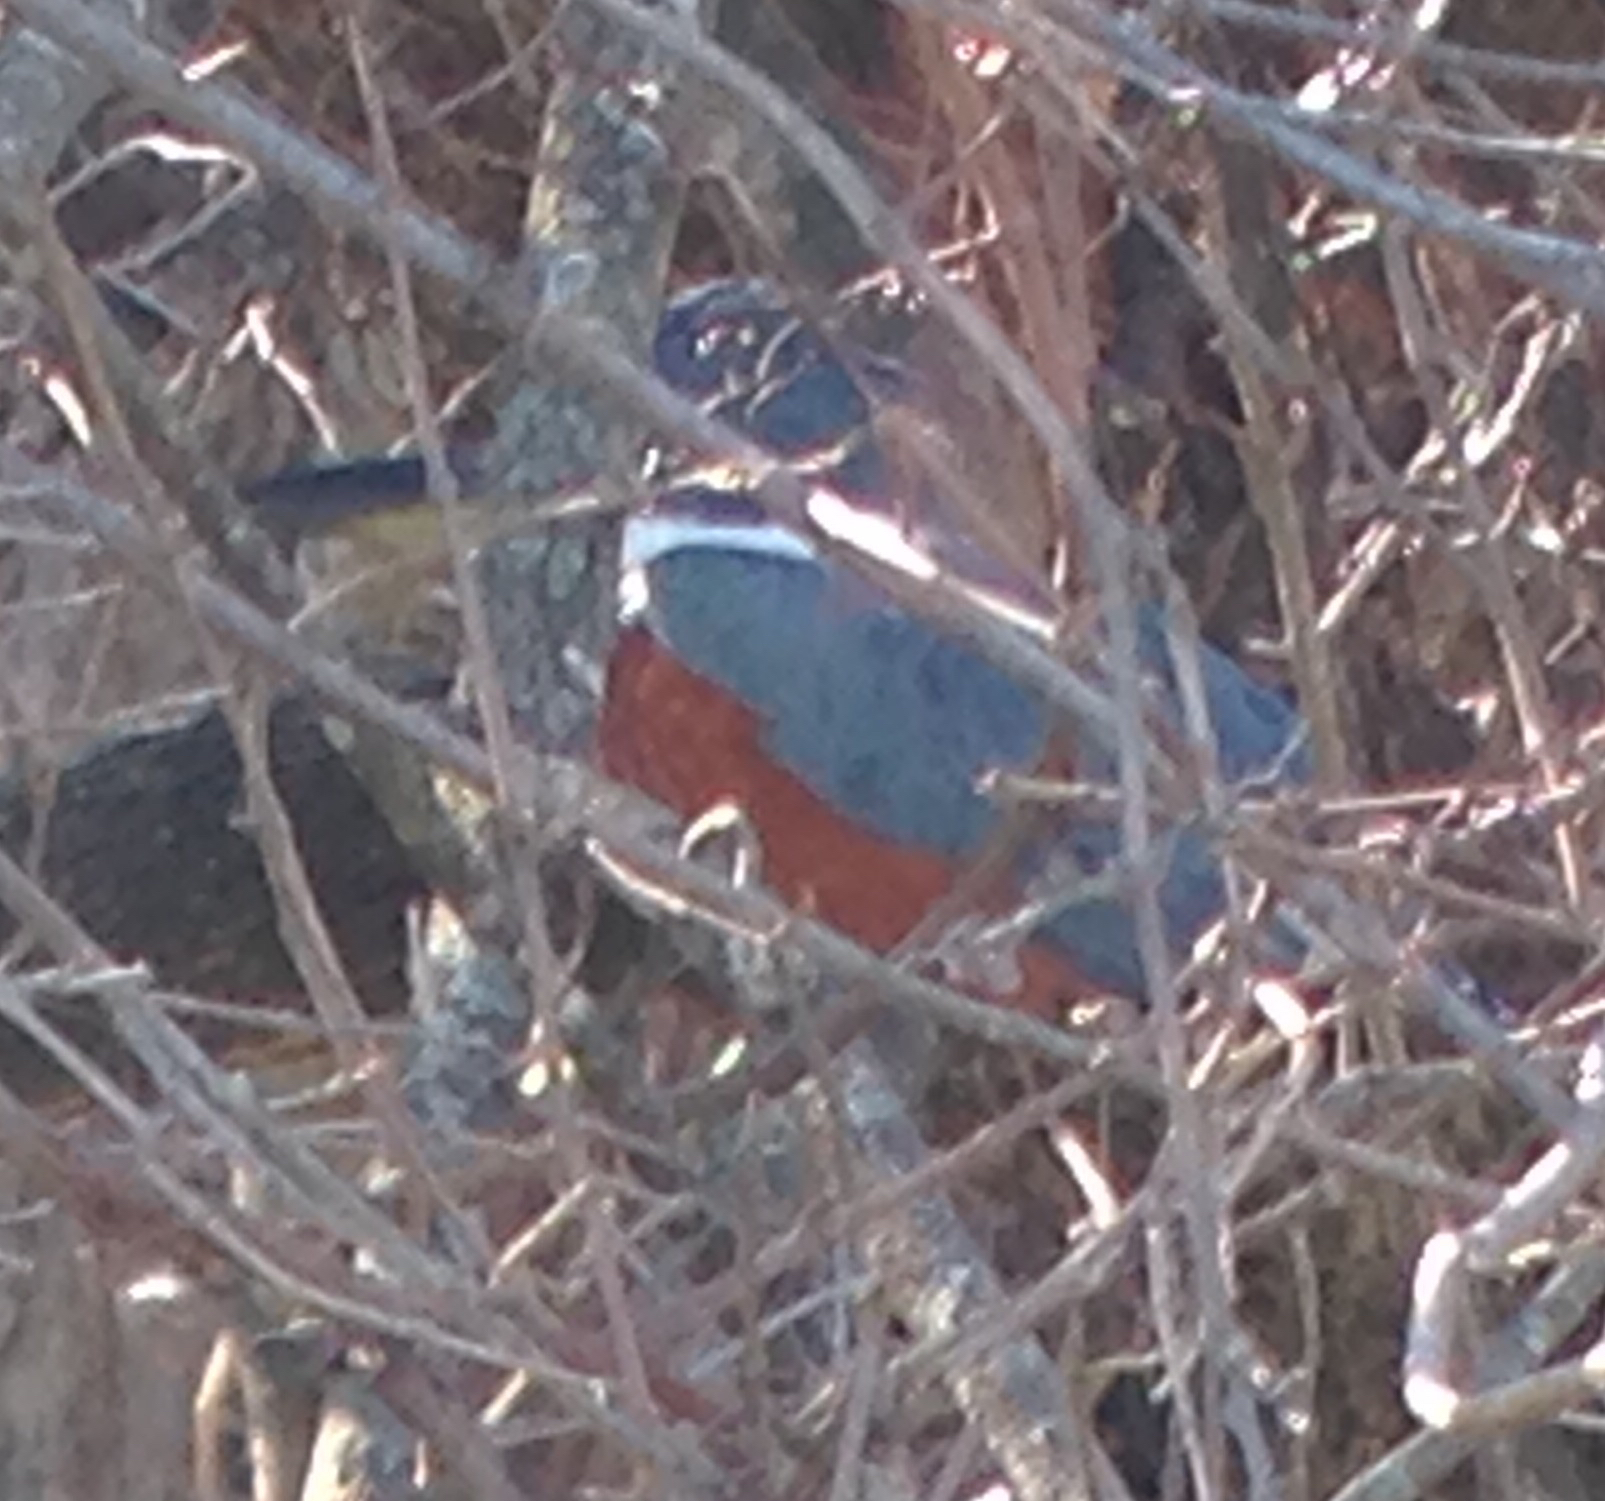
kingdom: Animalia
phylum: Chordata
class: Aves
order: Coraciiformes
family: Alcedinidae
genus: Megaceryle
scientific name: Megaceryle torquata
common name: Ringed kingfisher
